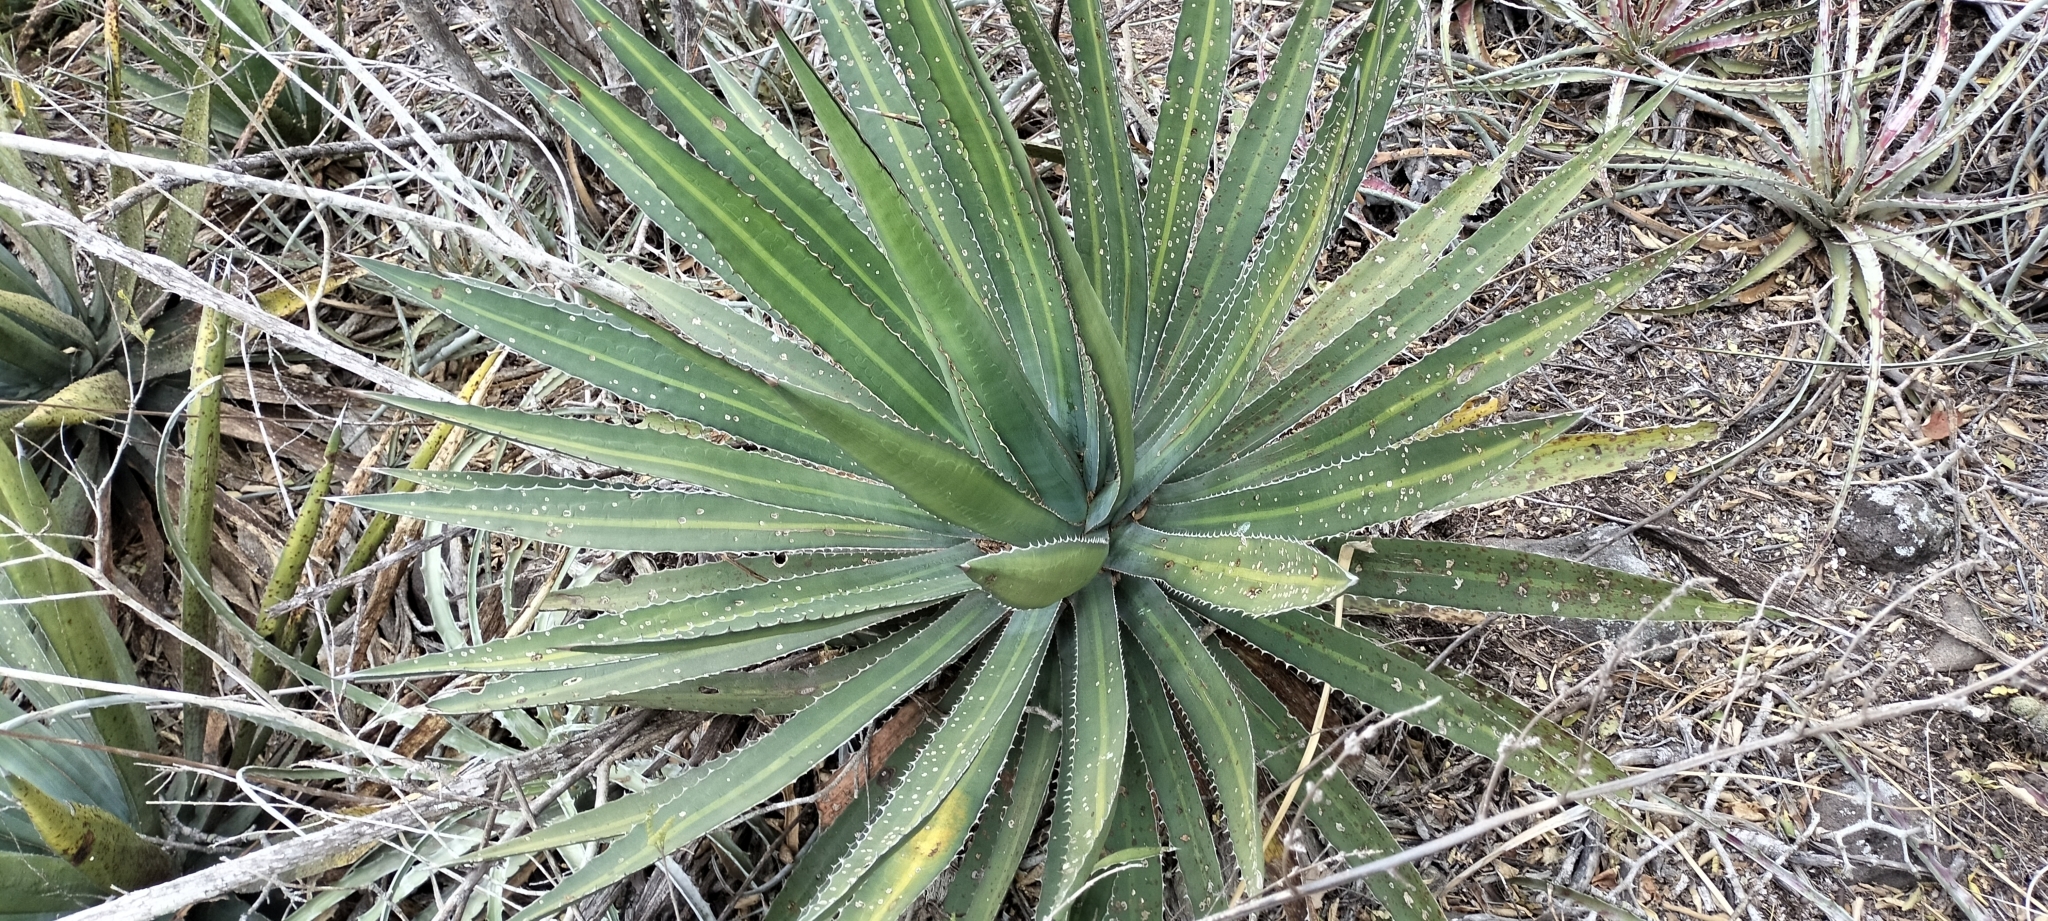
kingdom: Plantae
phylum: Tracheophyta
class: Liliopsida
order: Asparagales
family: Asparagaceae
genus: Agave
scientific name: Agave funkiana
